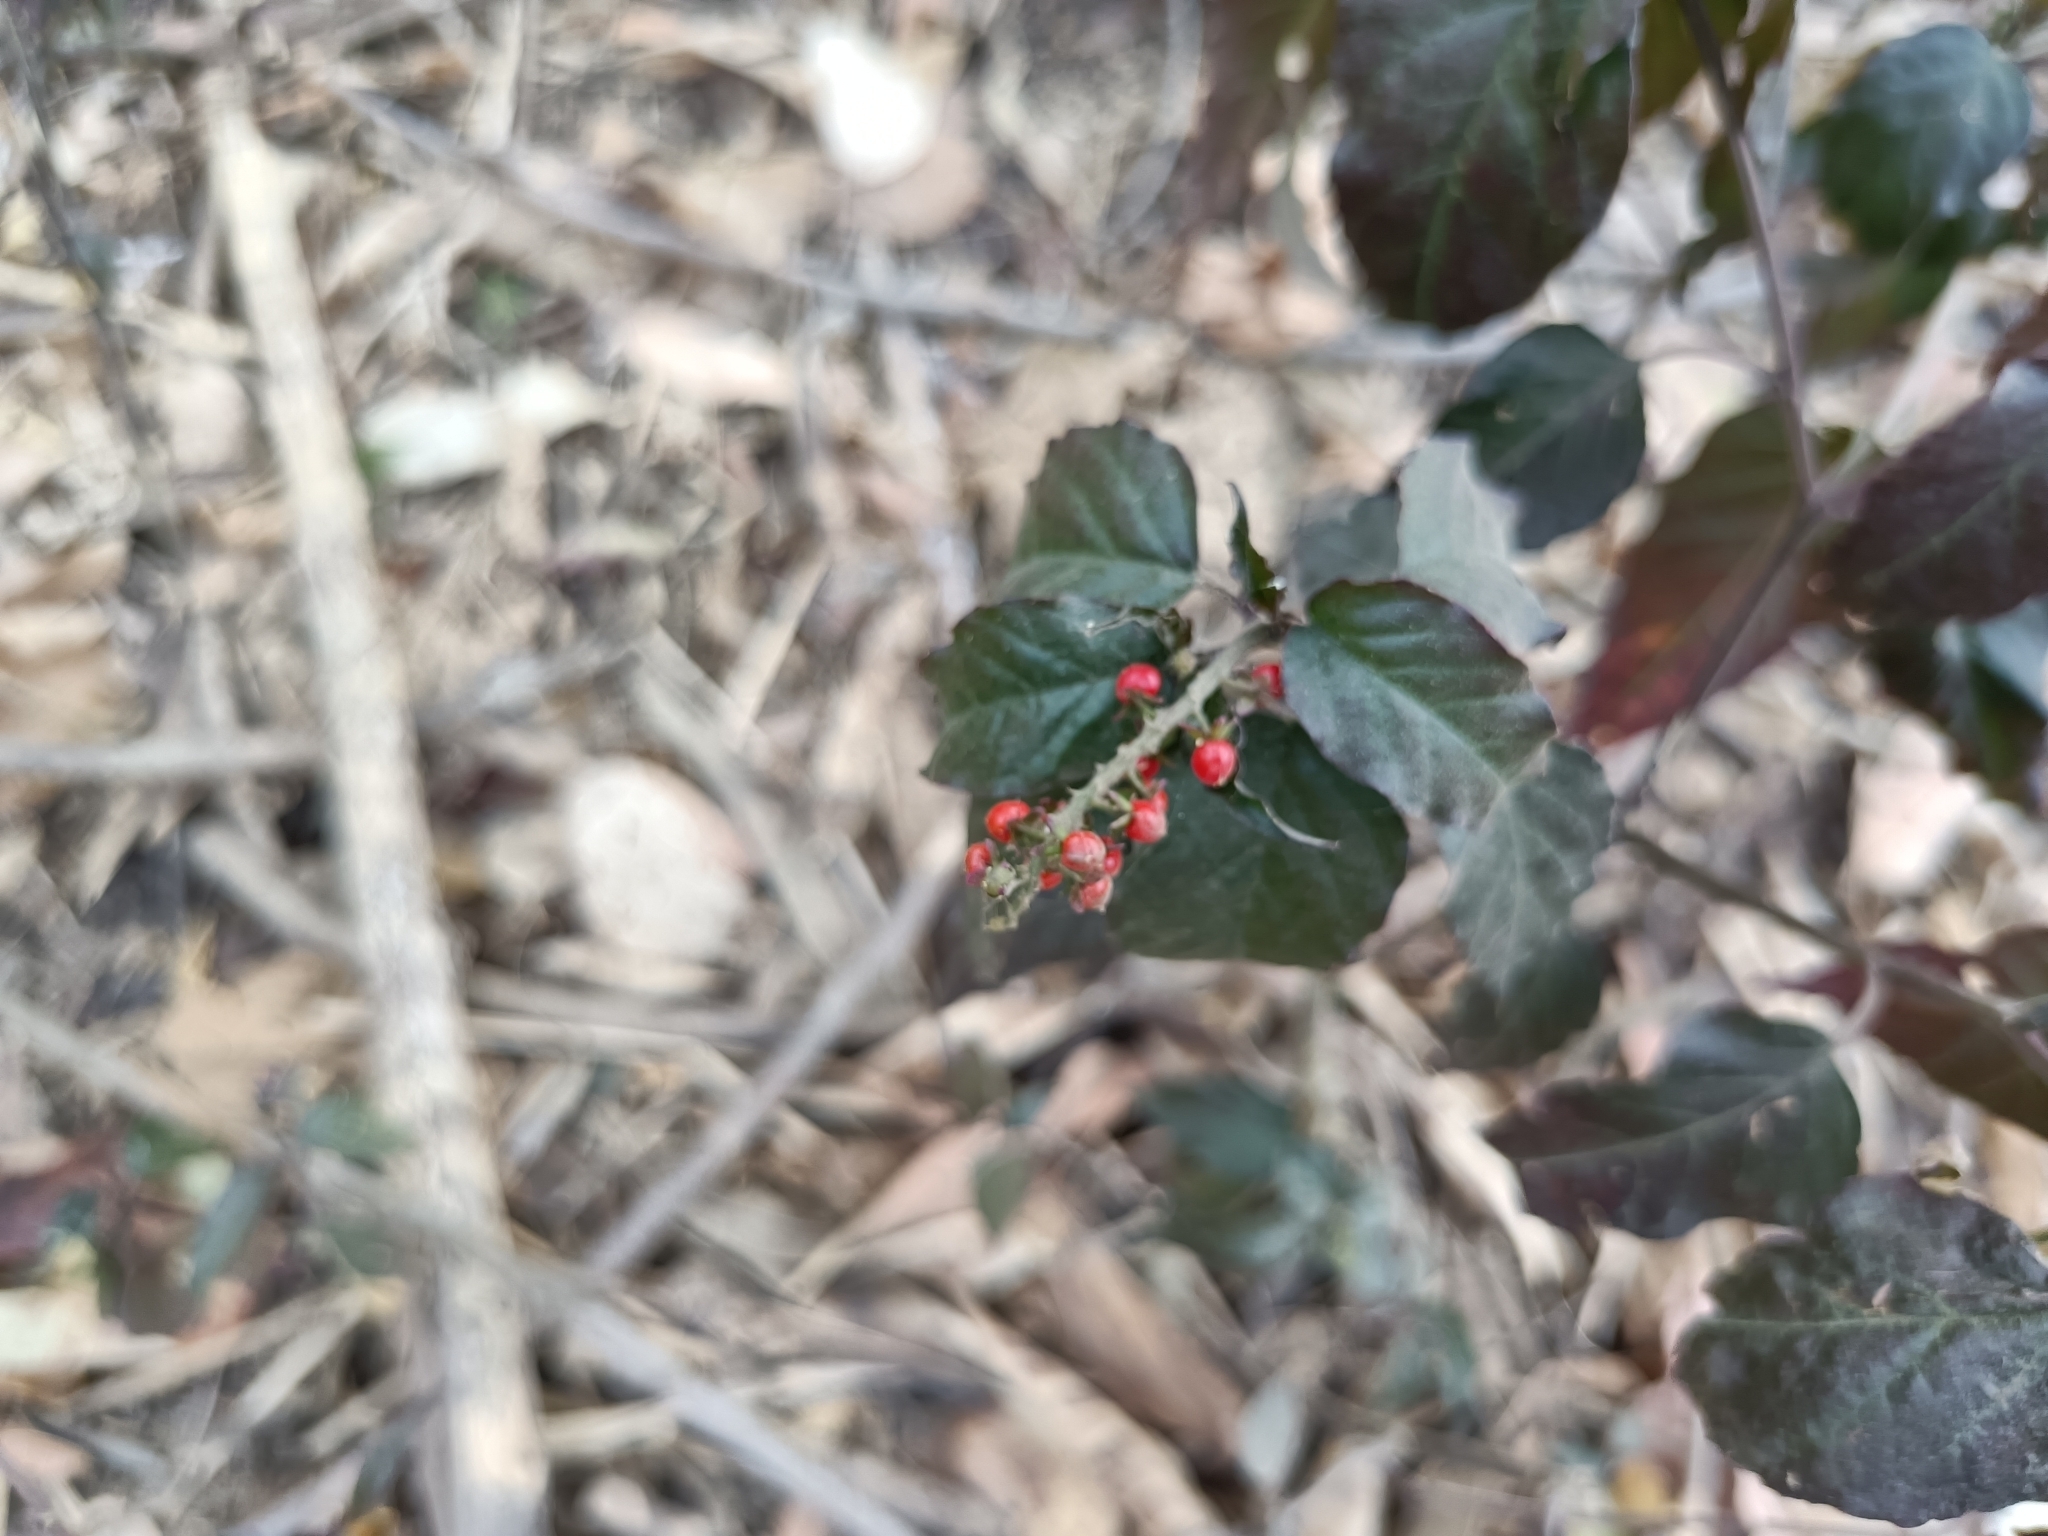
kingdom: Plantae
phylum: Tracheophyta
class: Magnoliopsida
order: Caryophyllales
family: Phytolaccaceae
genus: Rivina
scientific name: Rivina humilis
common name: Rougeplant
